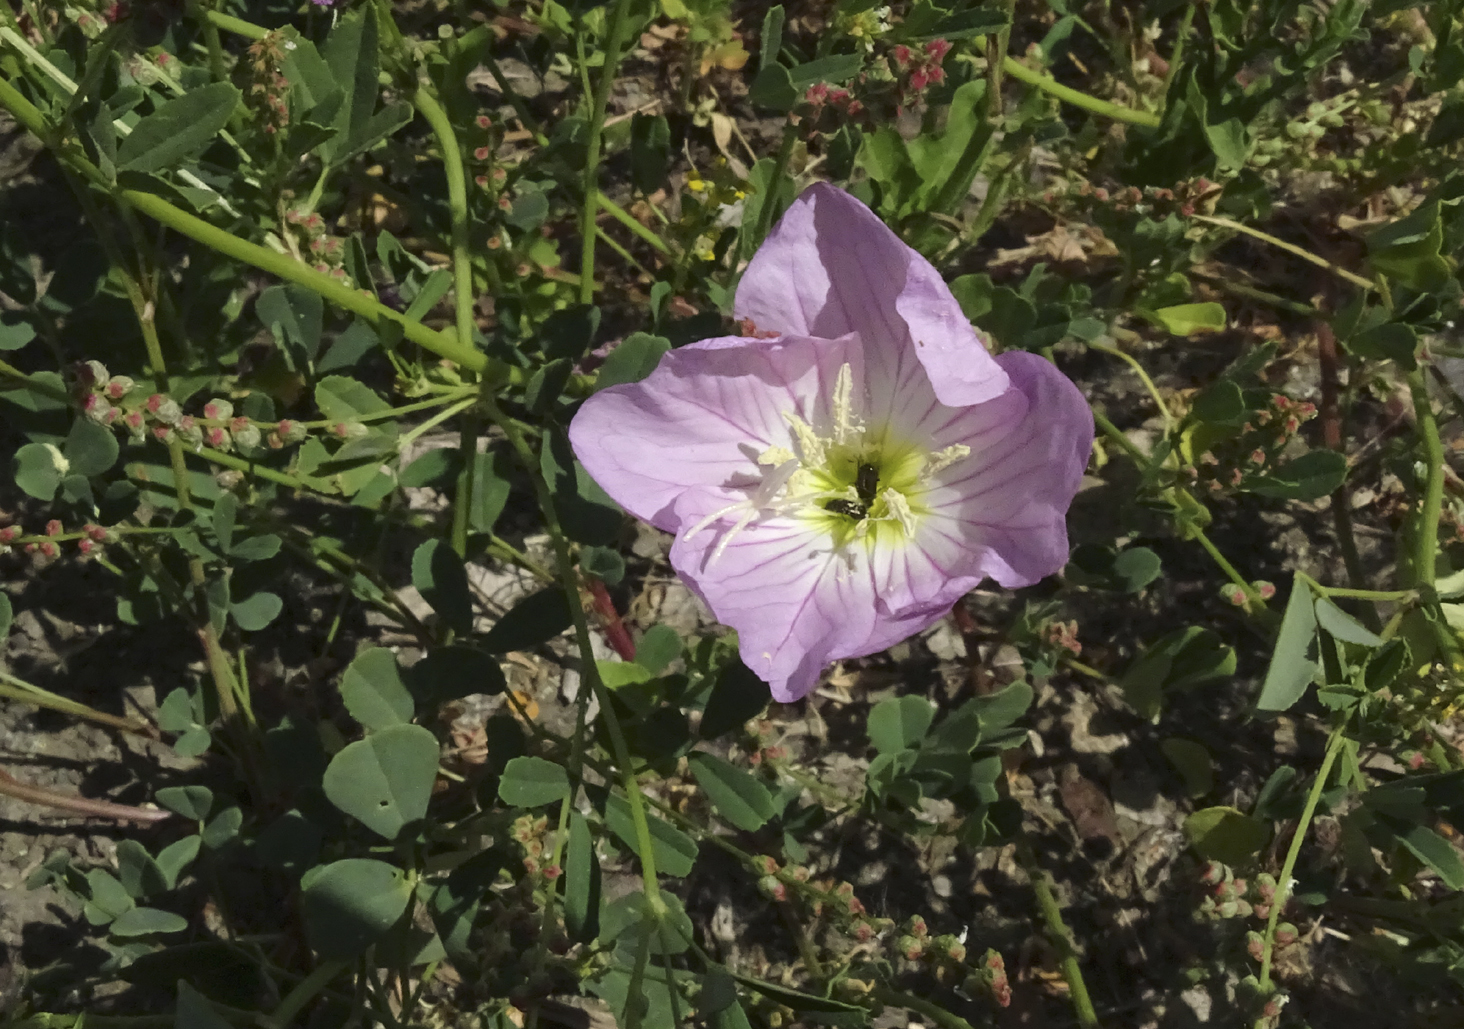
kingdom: Plantae
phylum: Tracheophyta
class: Magnoliopsida
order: Myrtales
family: Onagraceae
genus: Oenothera
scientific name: Oenothera speciosa
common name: White evening-primrose
